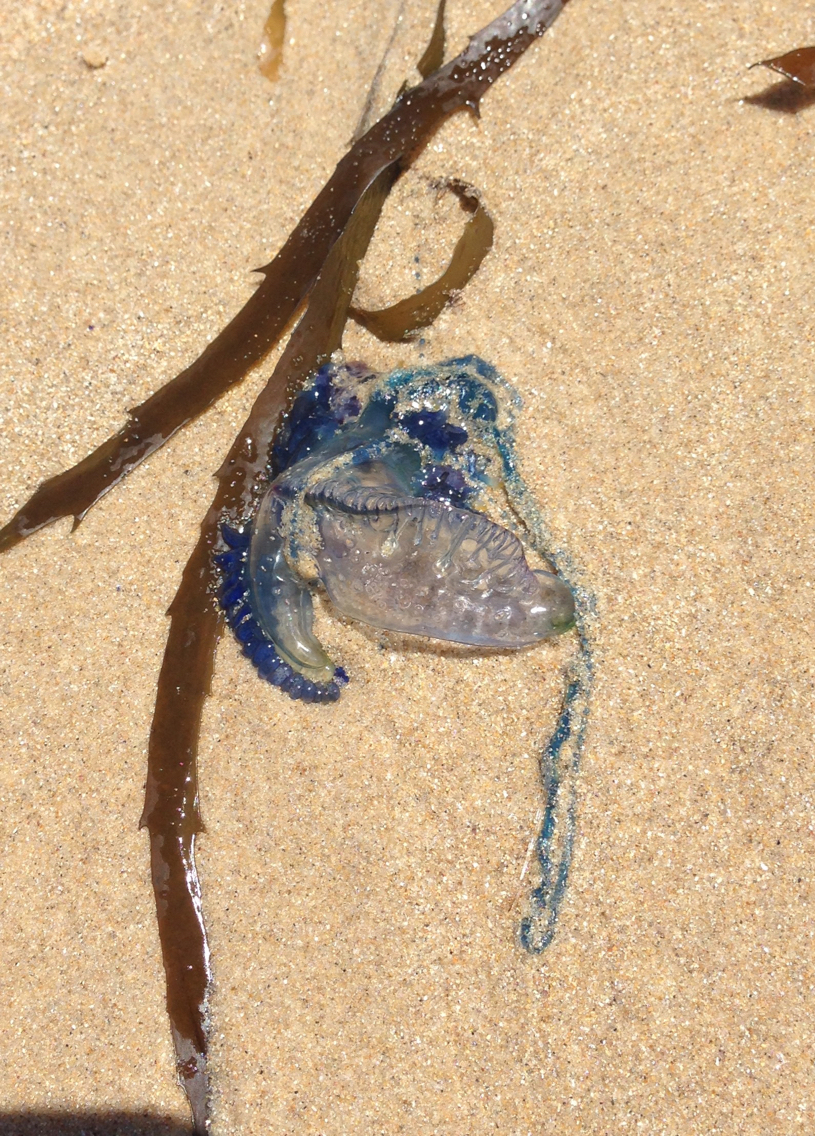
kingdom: Animalia
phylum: Cnidaria
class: Hydrozoa
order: Siphonophorae
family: Physaliidae
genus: Physalia
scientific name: Physalia physalis
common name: Portuguese man-of-war
